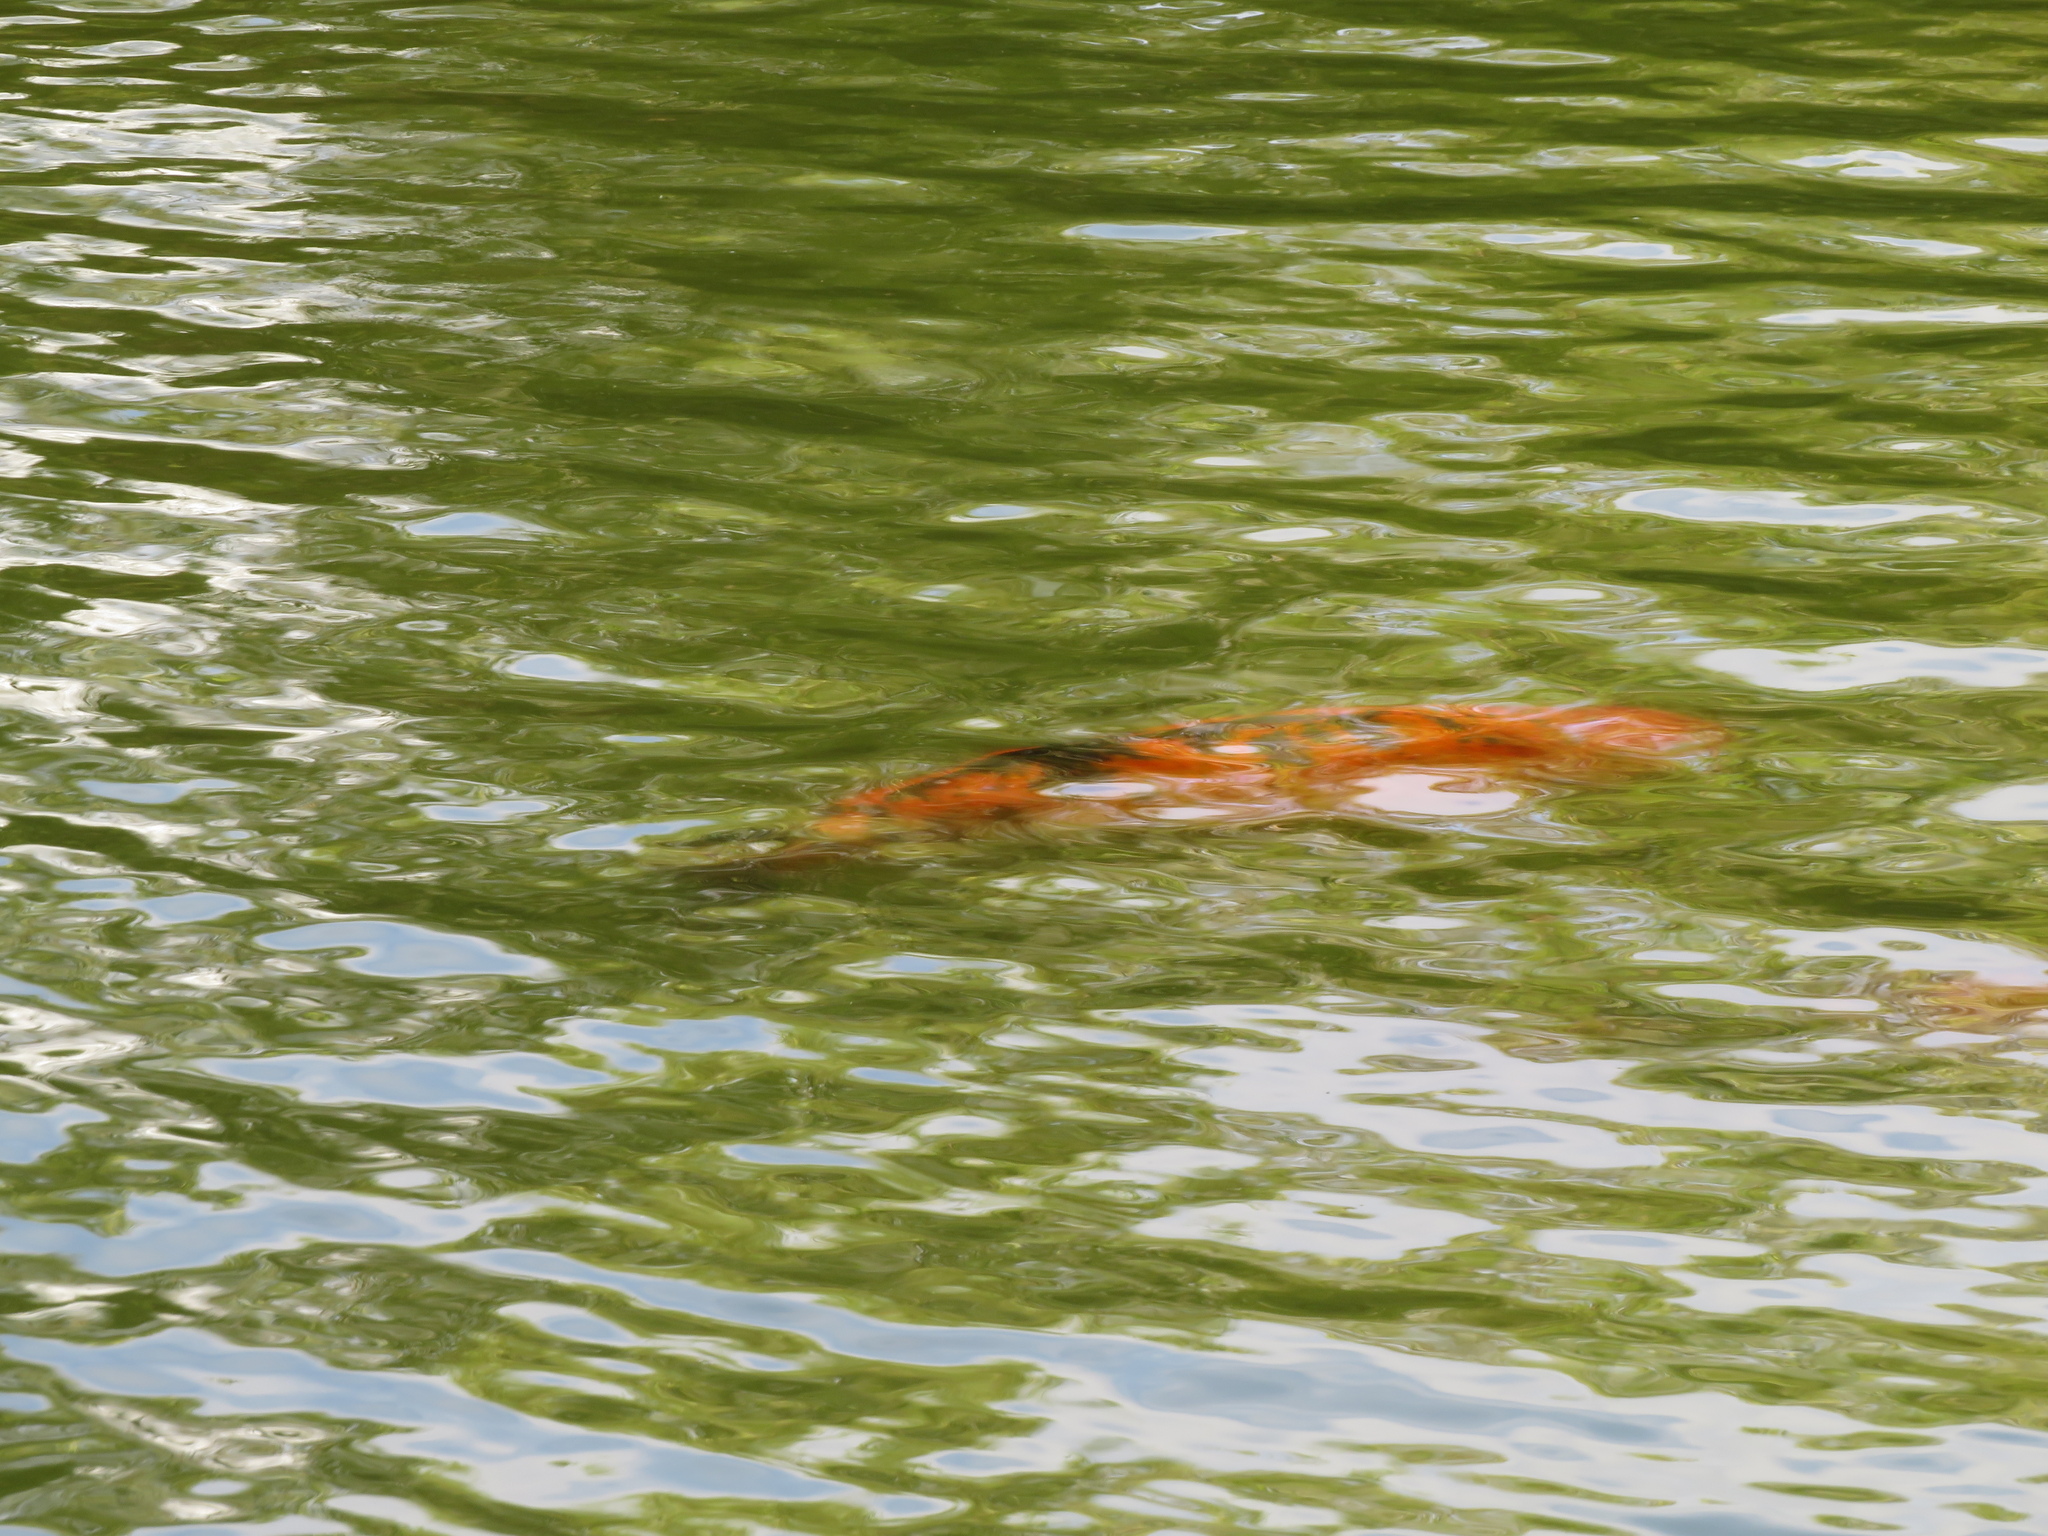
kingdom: Animalia
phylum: Chordata
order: Cypriniformes
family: Cyprinidae
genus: Cyprinus
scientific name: Cyprinus rubrofuscus
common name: Koi
